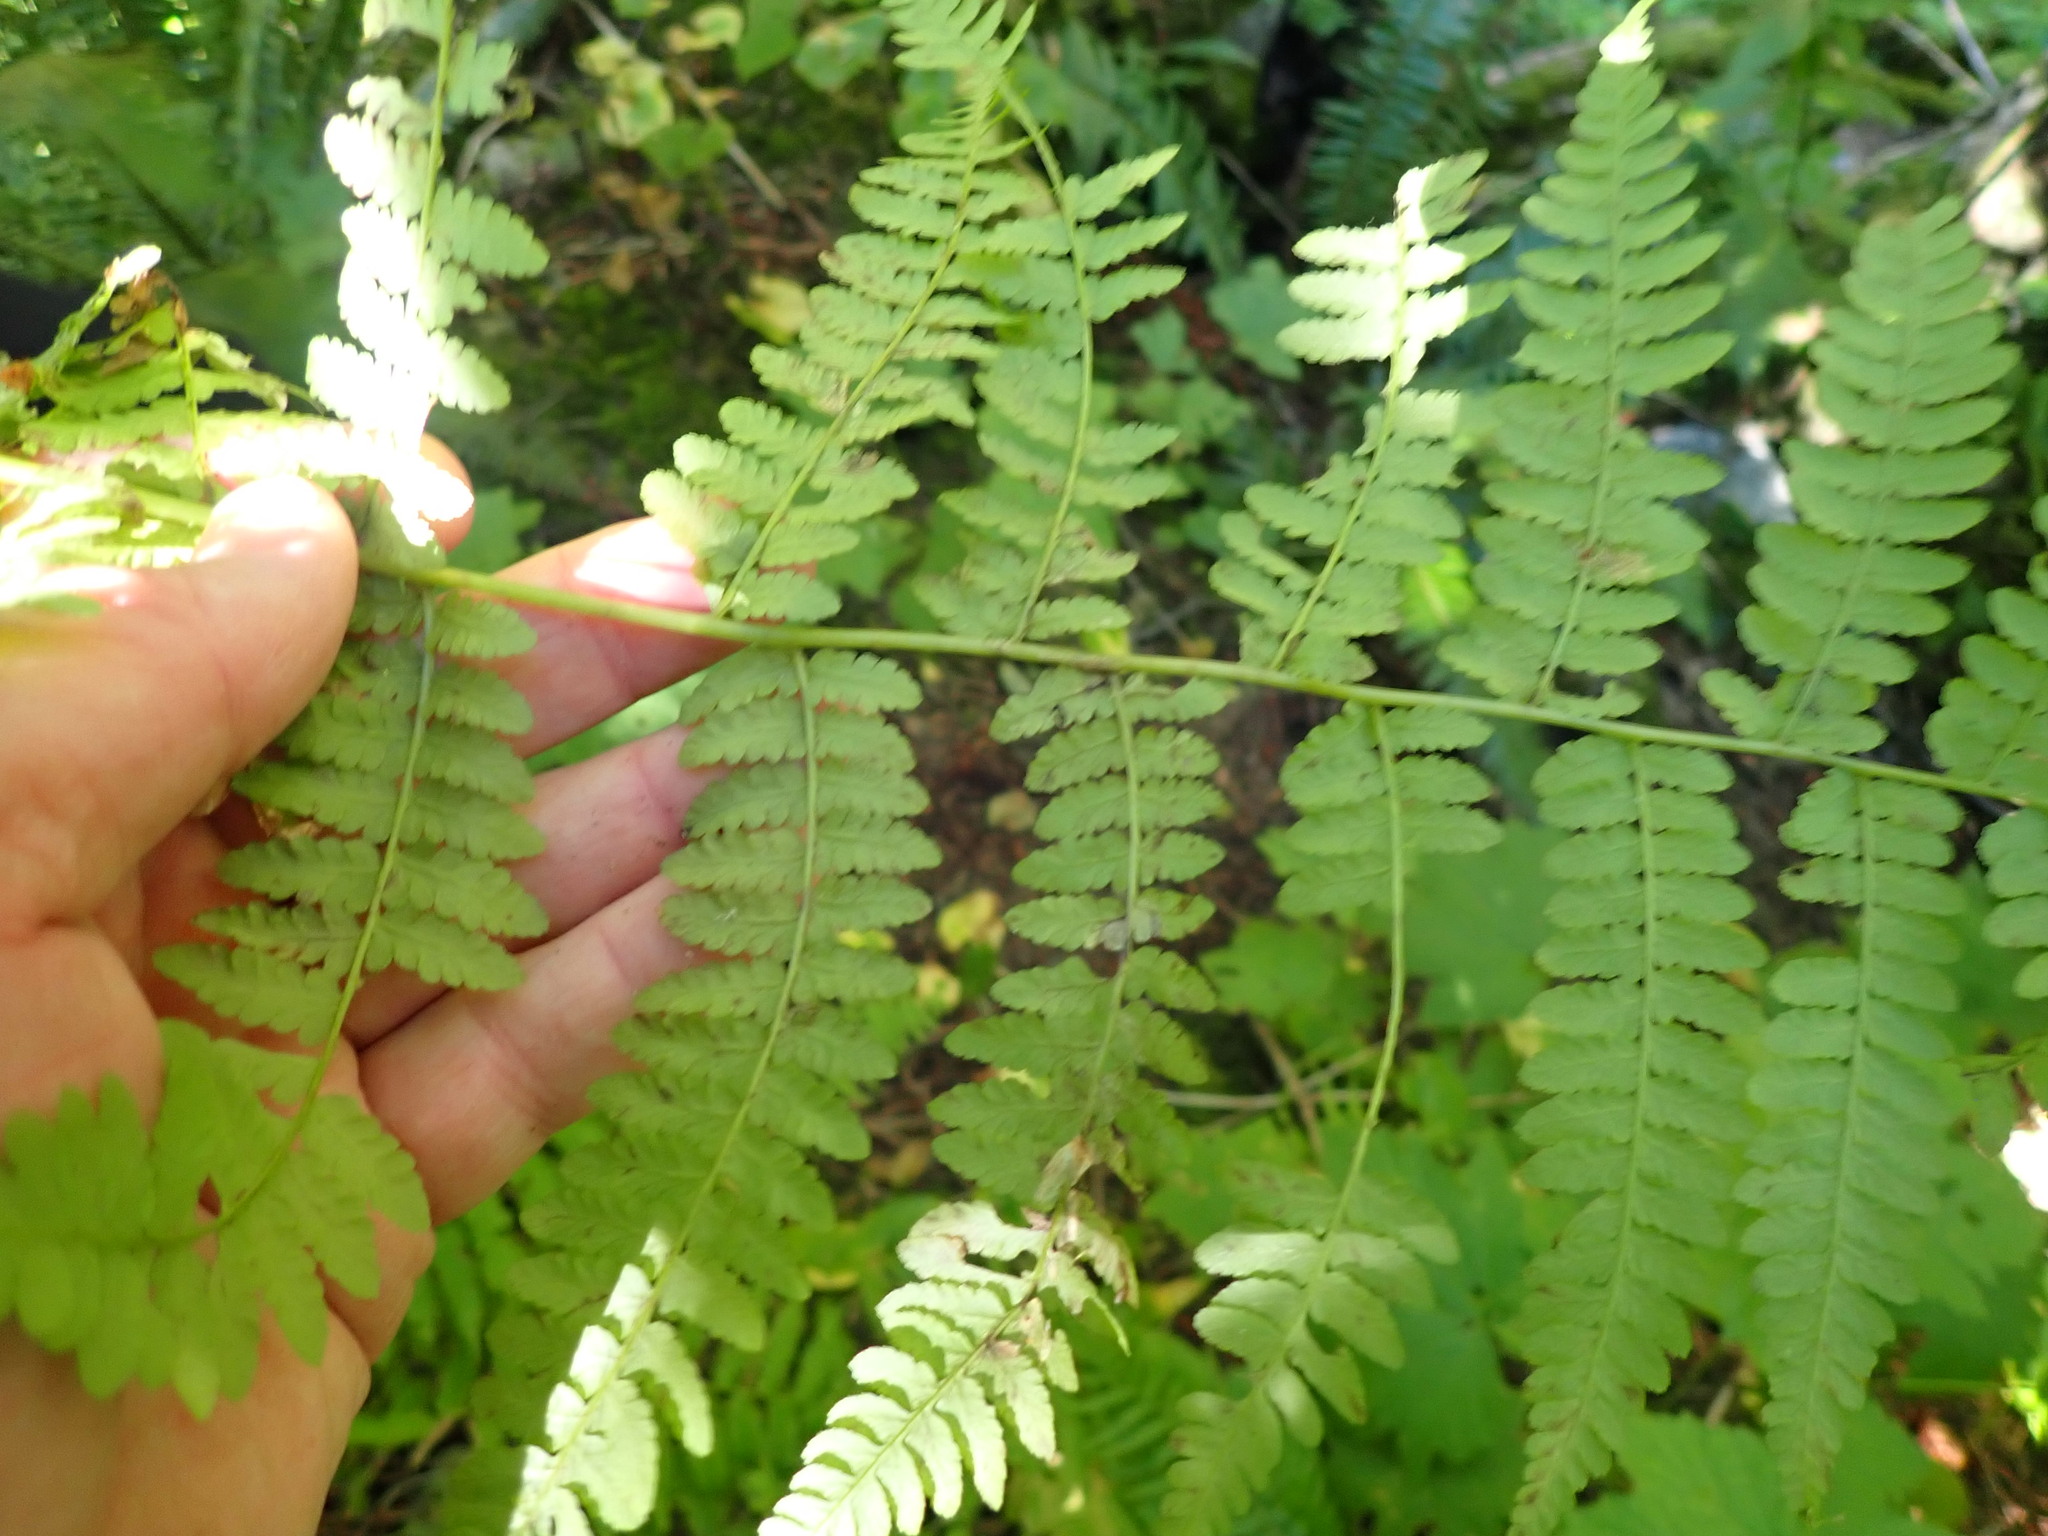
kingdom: Plantae
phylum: Tracheophyta
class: Polypodiopsida
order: Polypodiales
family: Athyriaceae
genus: Athyrium
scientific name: Athyrium filix-femina
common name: Lady fern
